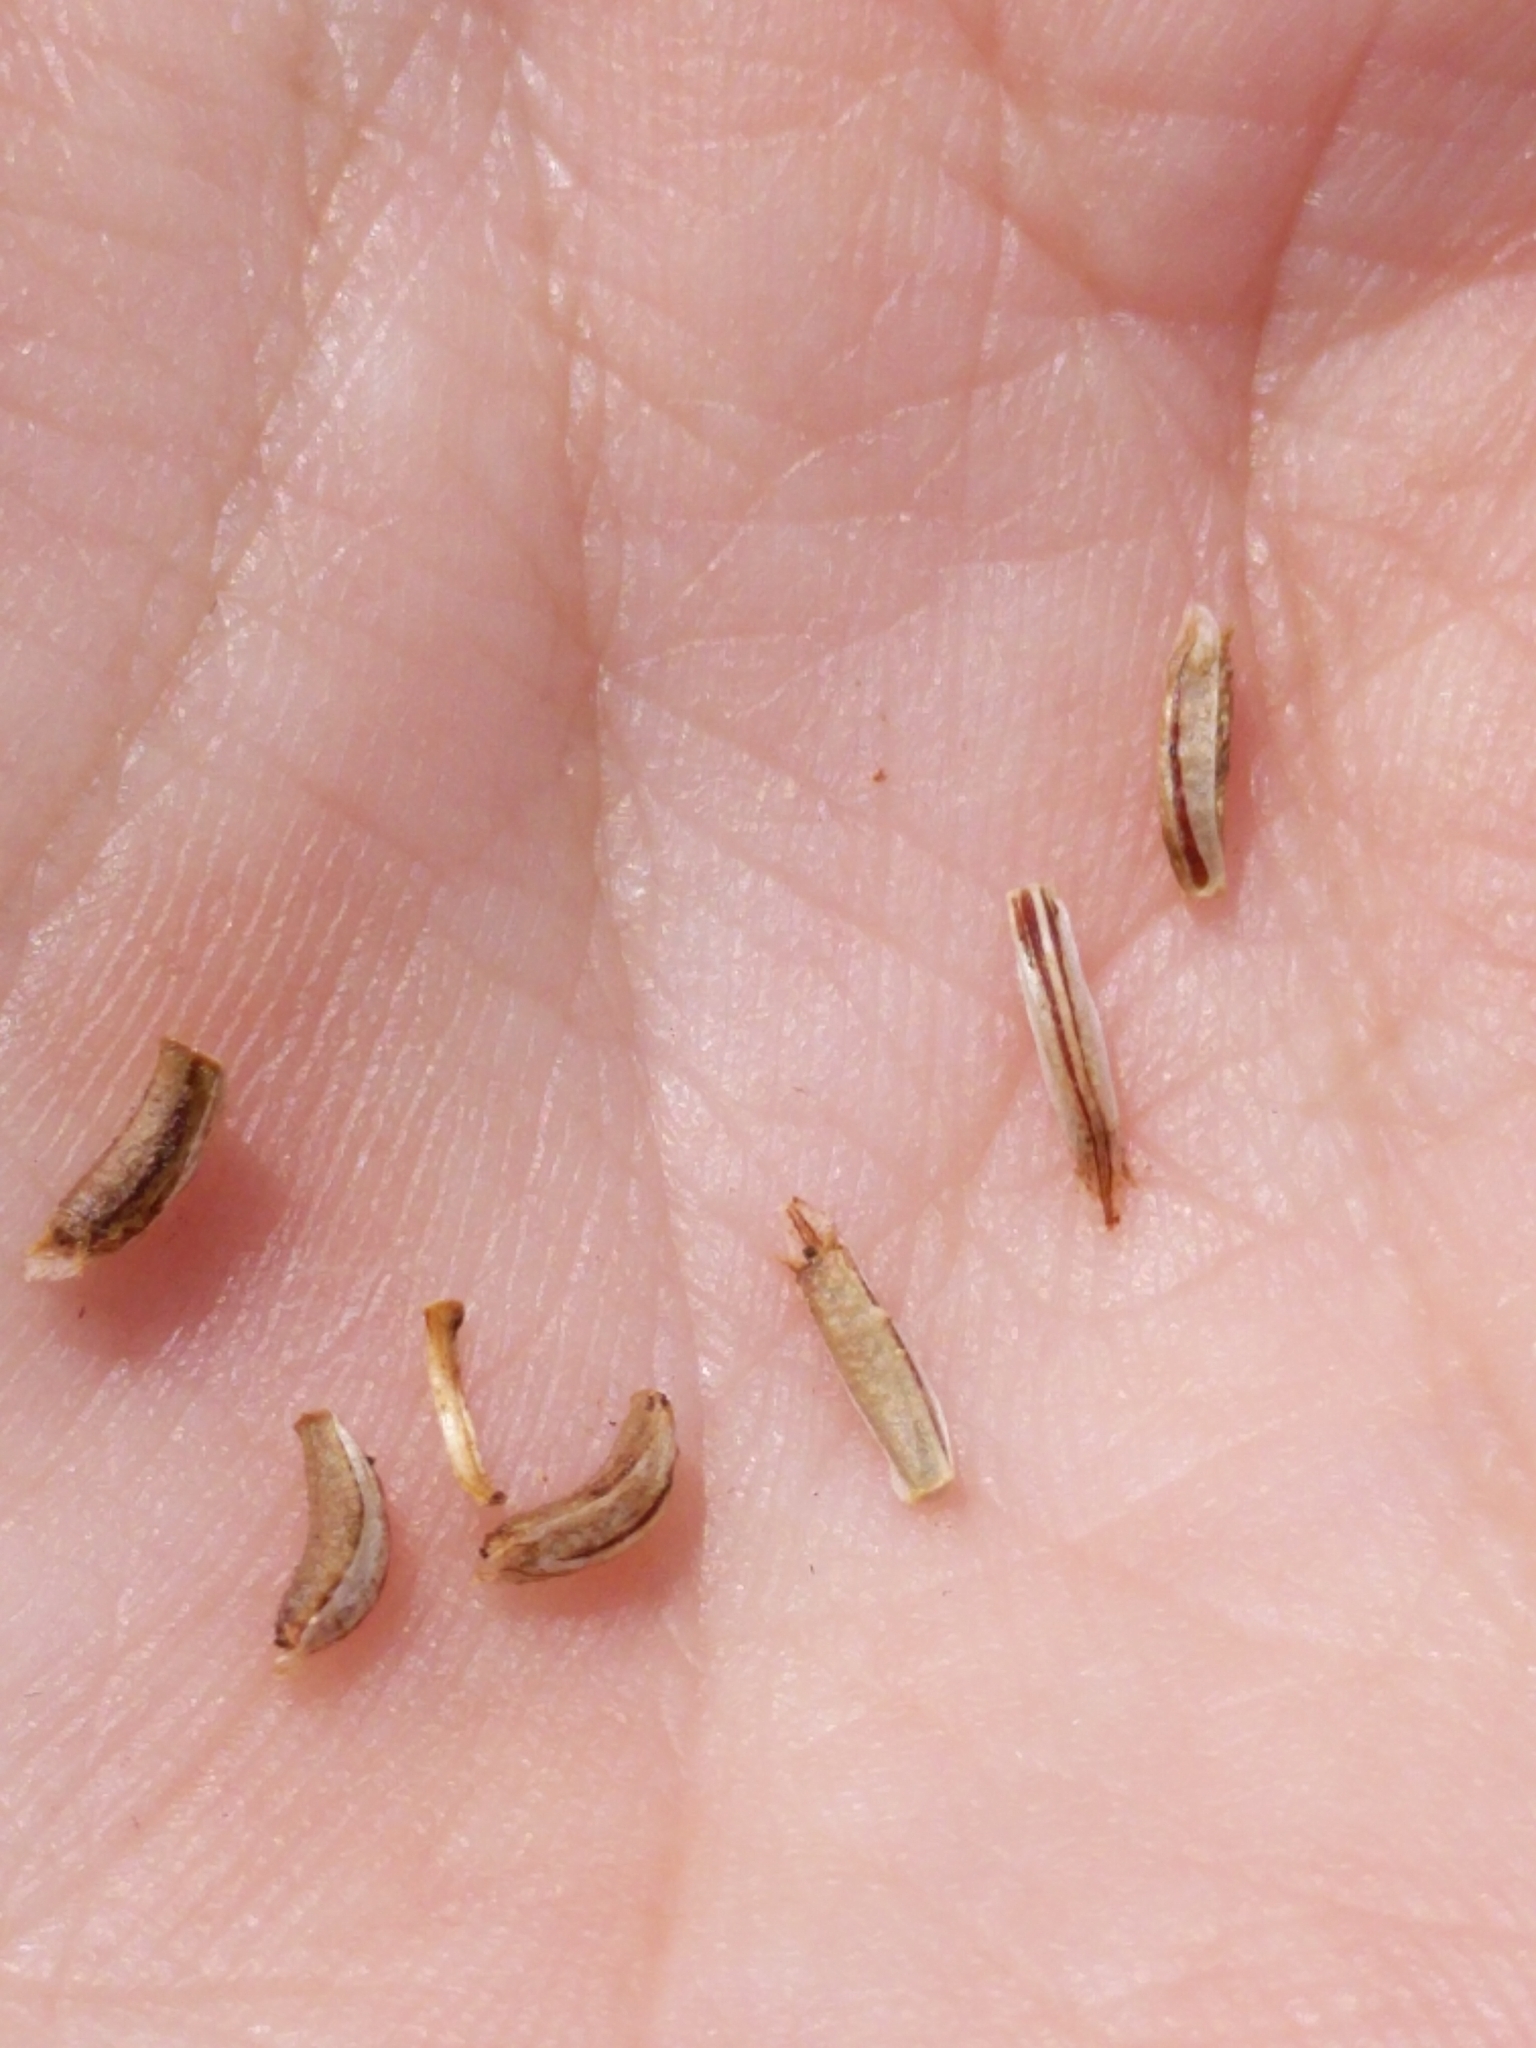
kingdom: Plantae
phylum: Tracheophyta
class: Magnoliopsida
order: Asterales
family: Asteraceae
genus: Thelesperma
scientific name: Thelesperma filifolium
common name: Stiff greenthread
